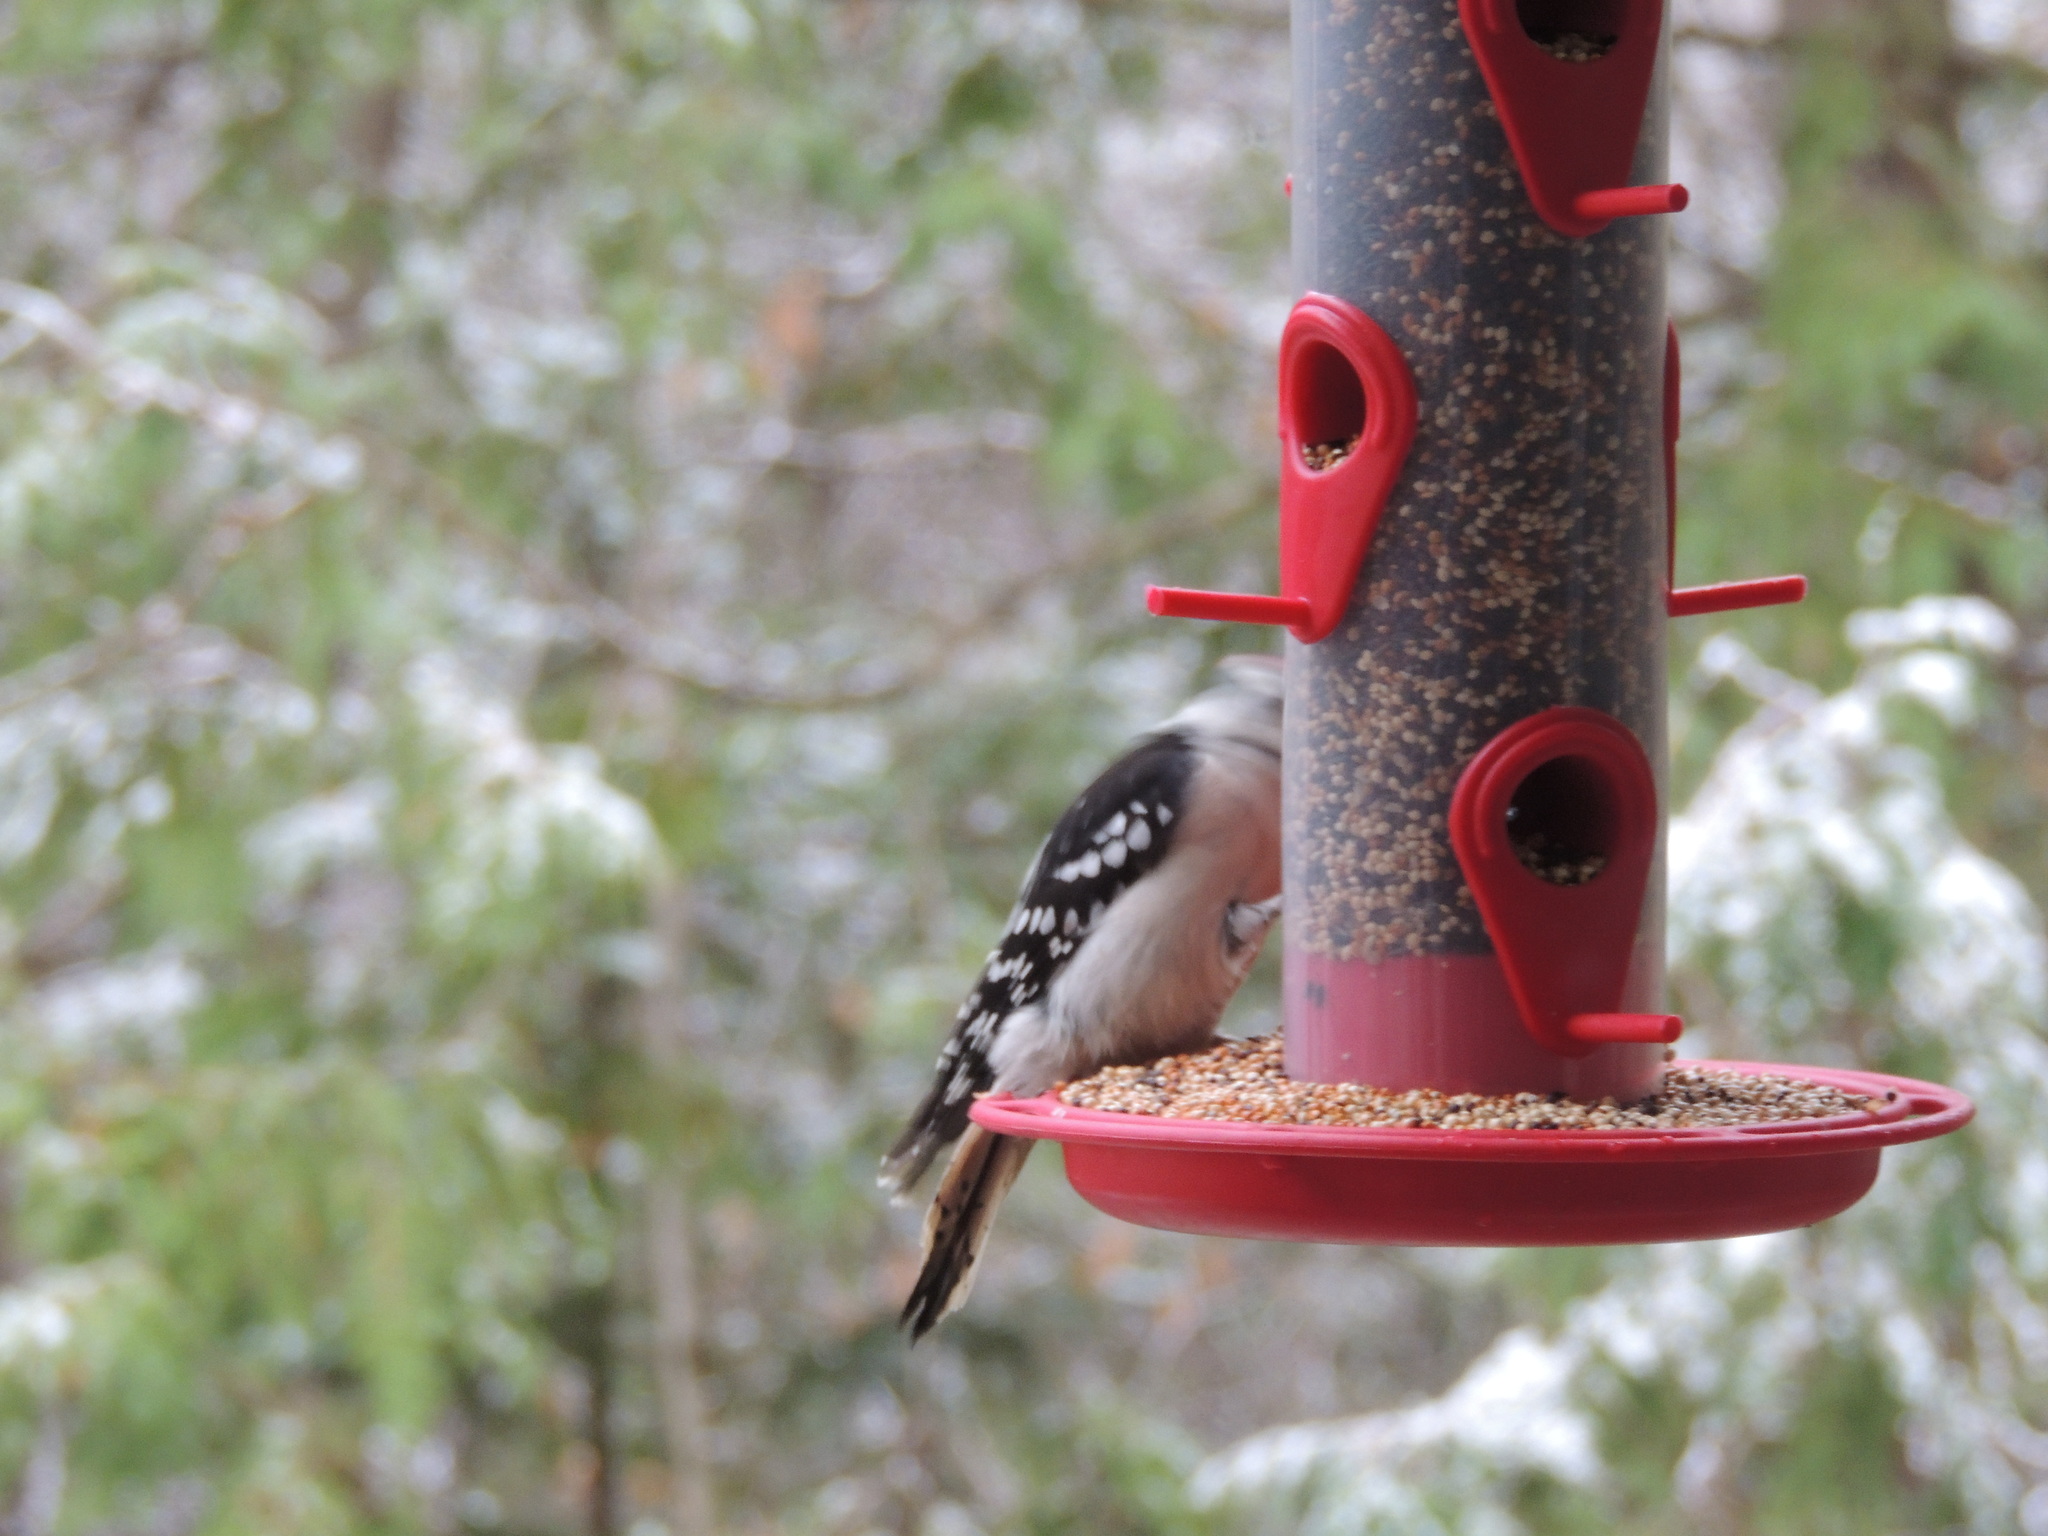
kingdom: Animalia
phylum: Chordata
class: Aves
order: Piciformes
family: Picidae
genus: Dryobates
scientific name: Dryobates pubescens
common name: Downy woodpecker
